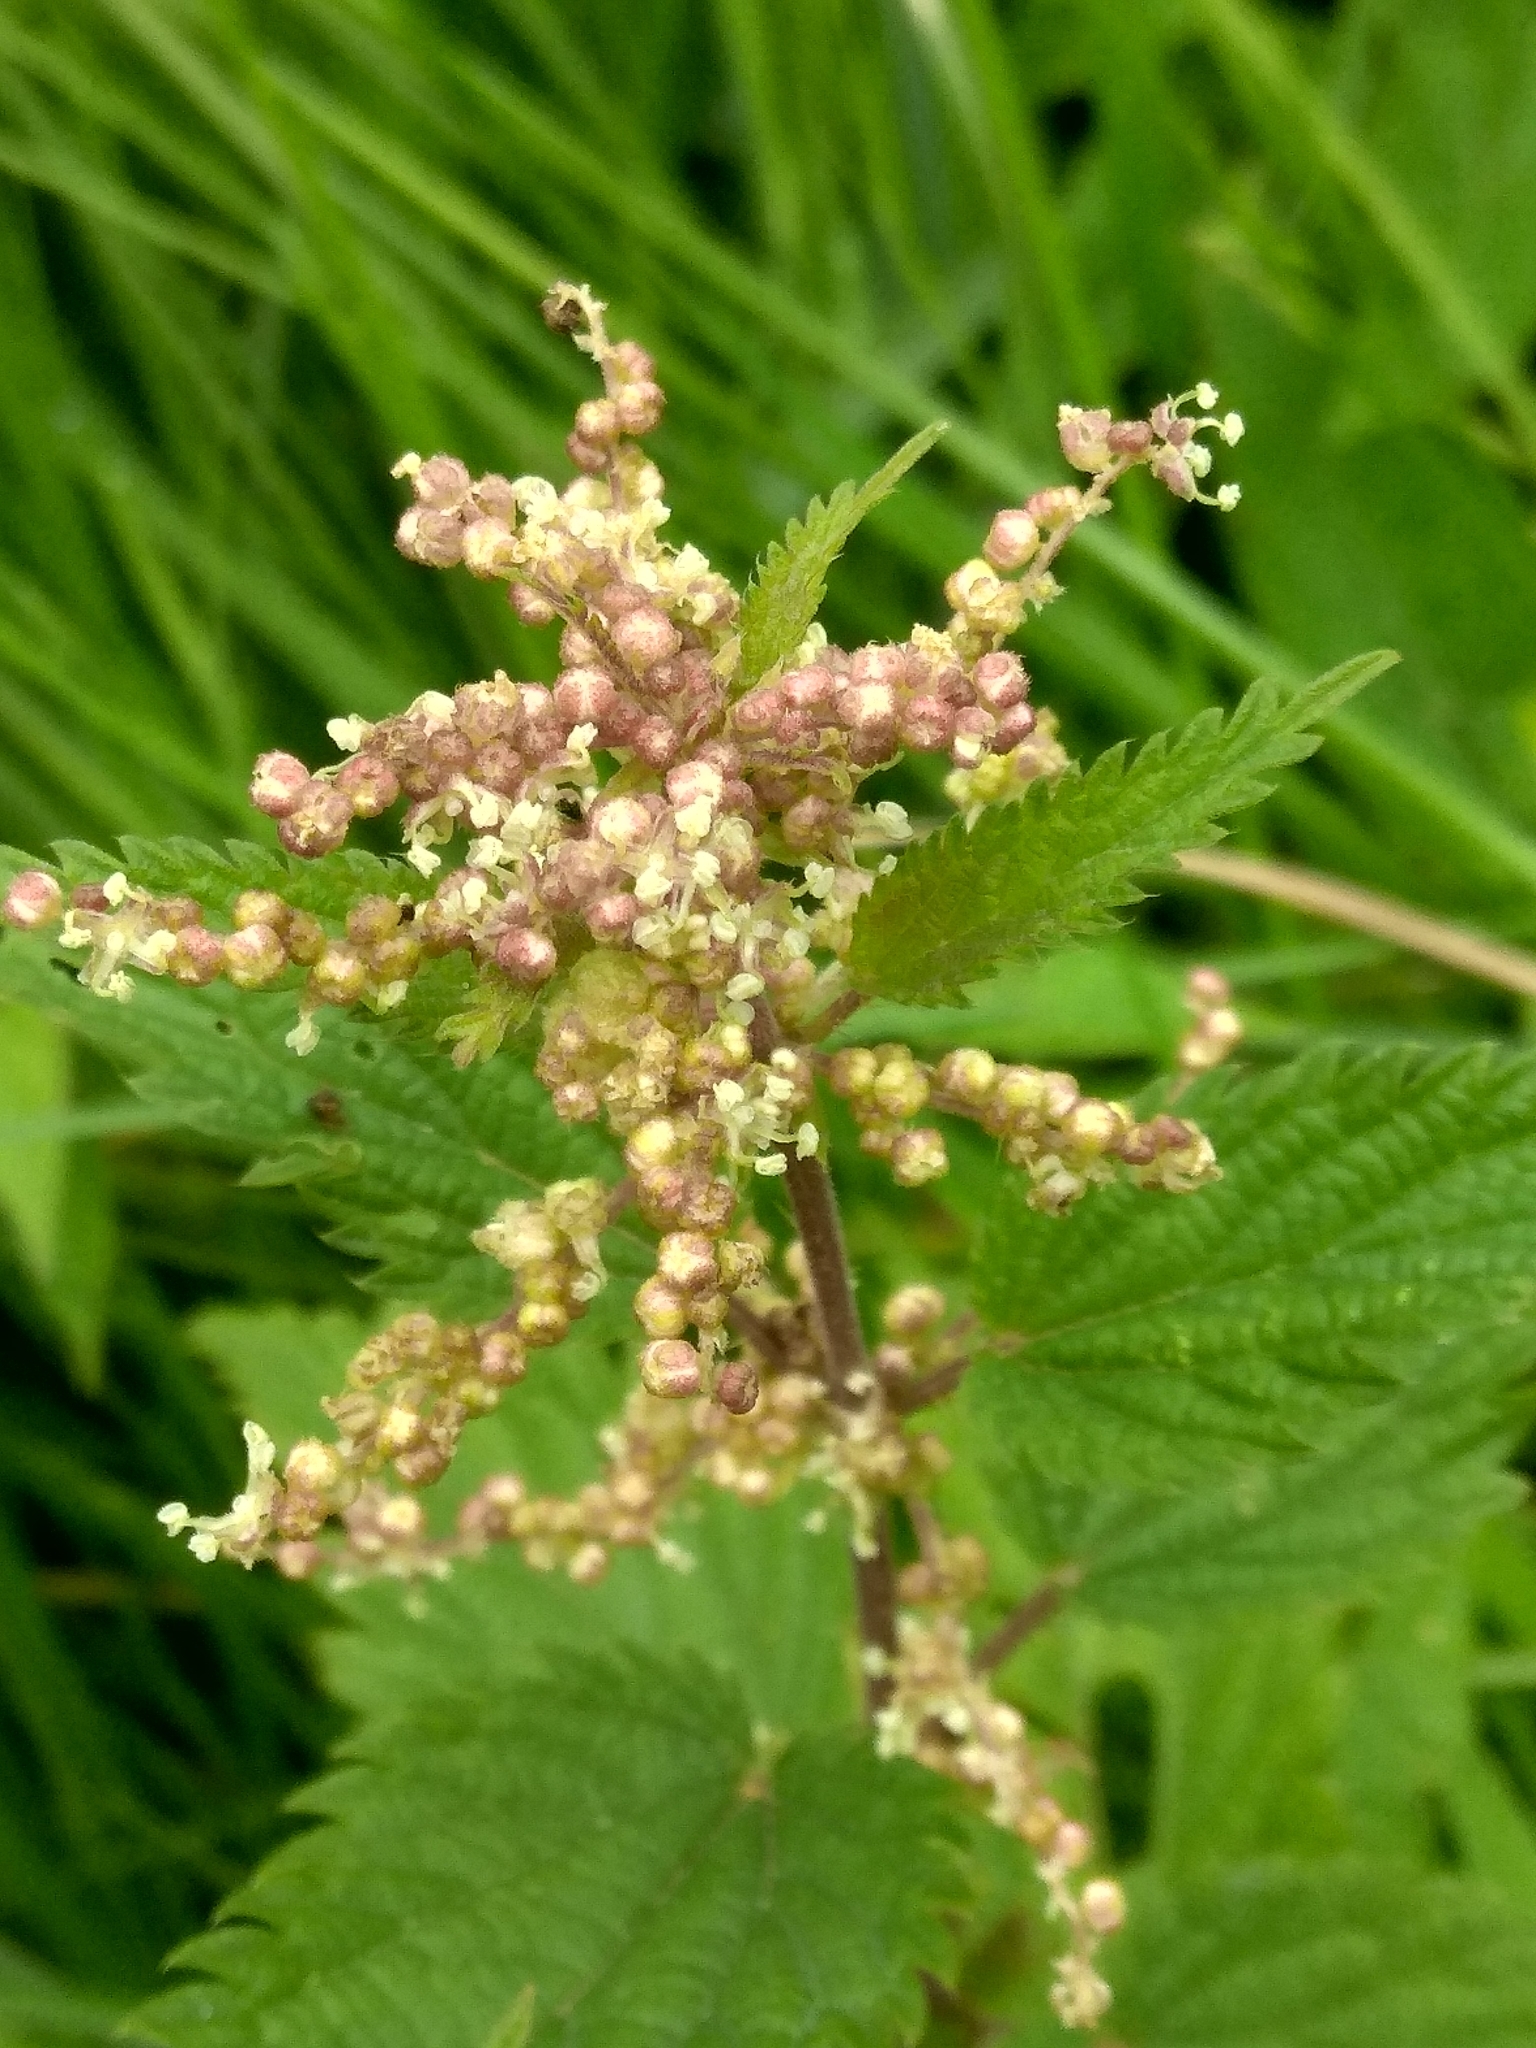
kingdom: Plantae
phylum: Tracheophyta
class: Magnoliopsida
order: Rosales
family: Urticaceae
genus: Urtica
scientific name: Urtica dioica
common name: Common nettle
